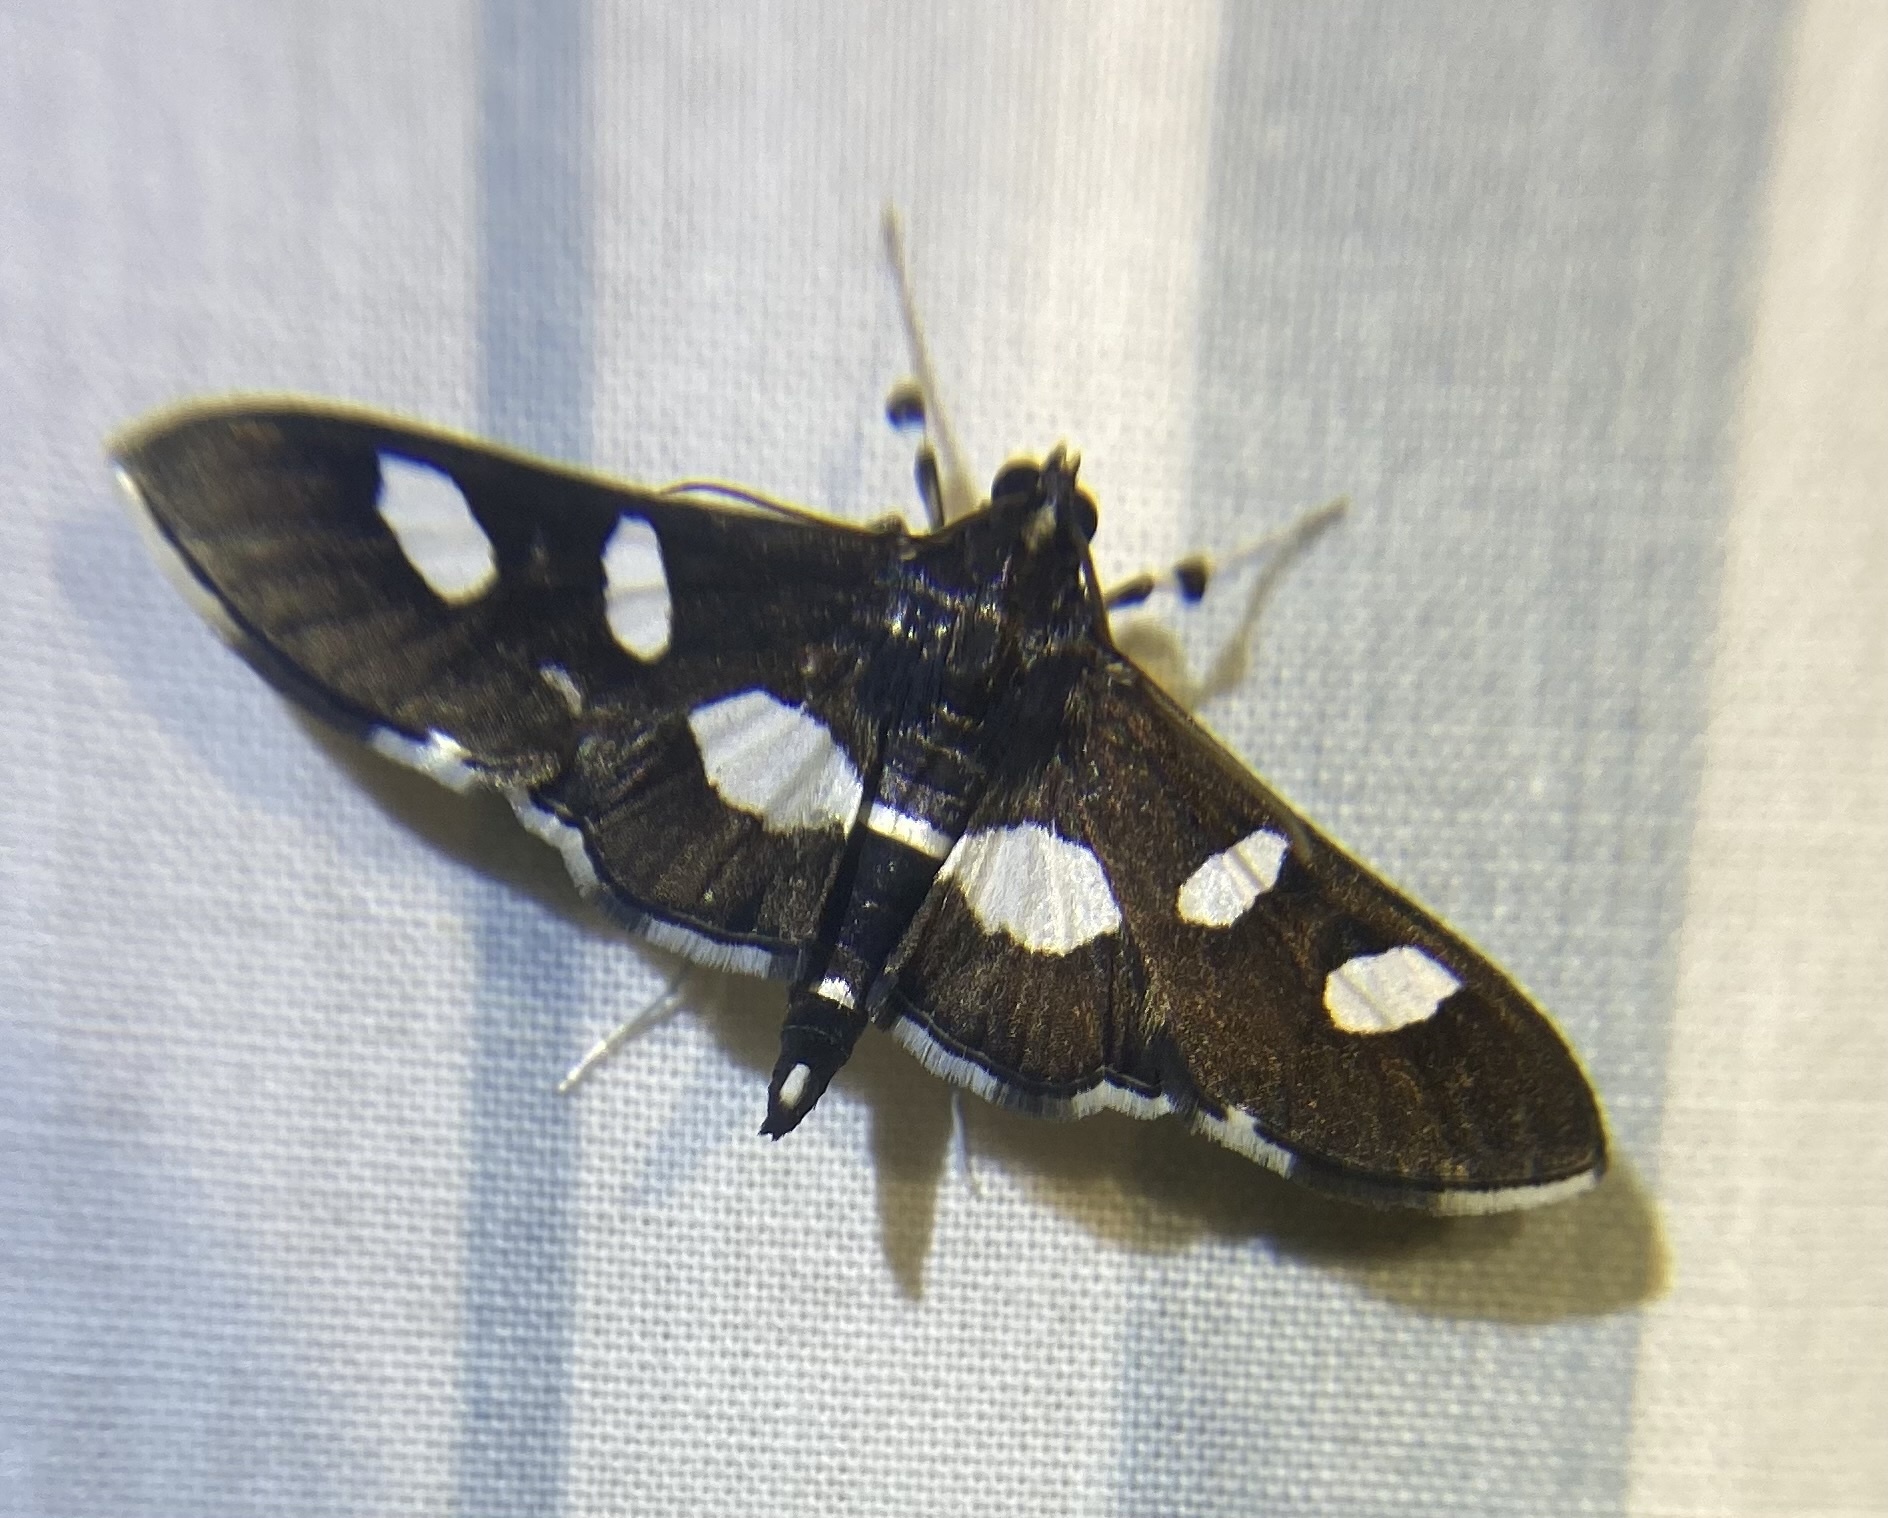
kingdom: Animalia
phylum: Arthropoda
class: Insecta
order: Lepidoptera
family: Crambidae
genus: Desmia
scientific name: Desmia
